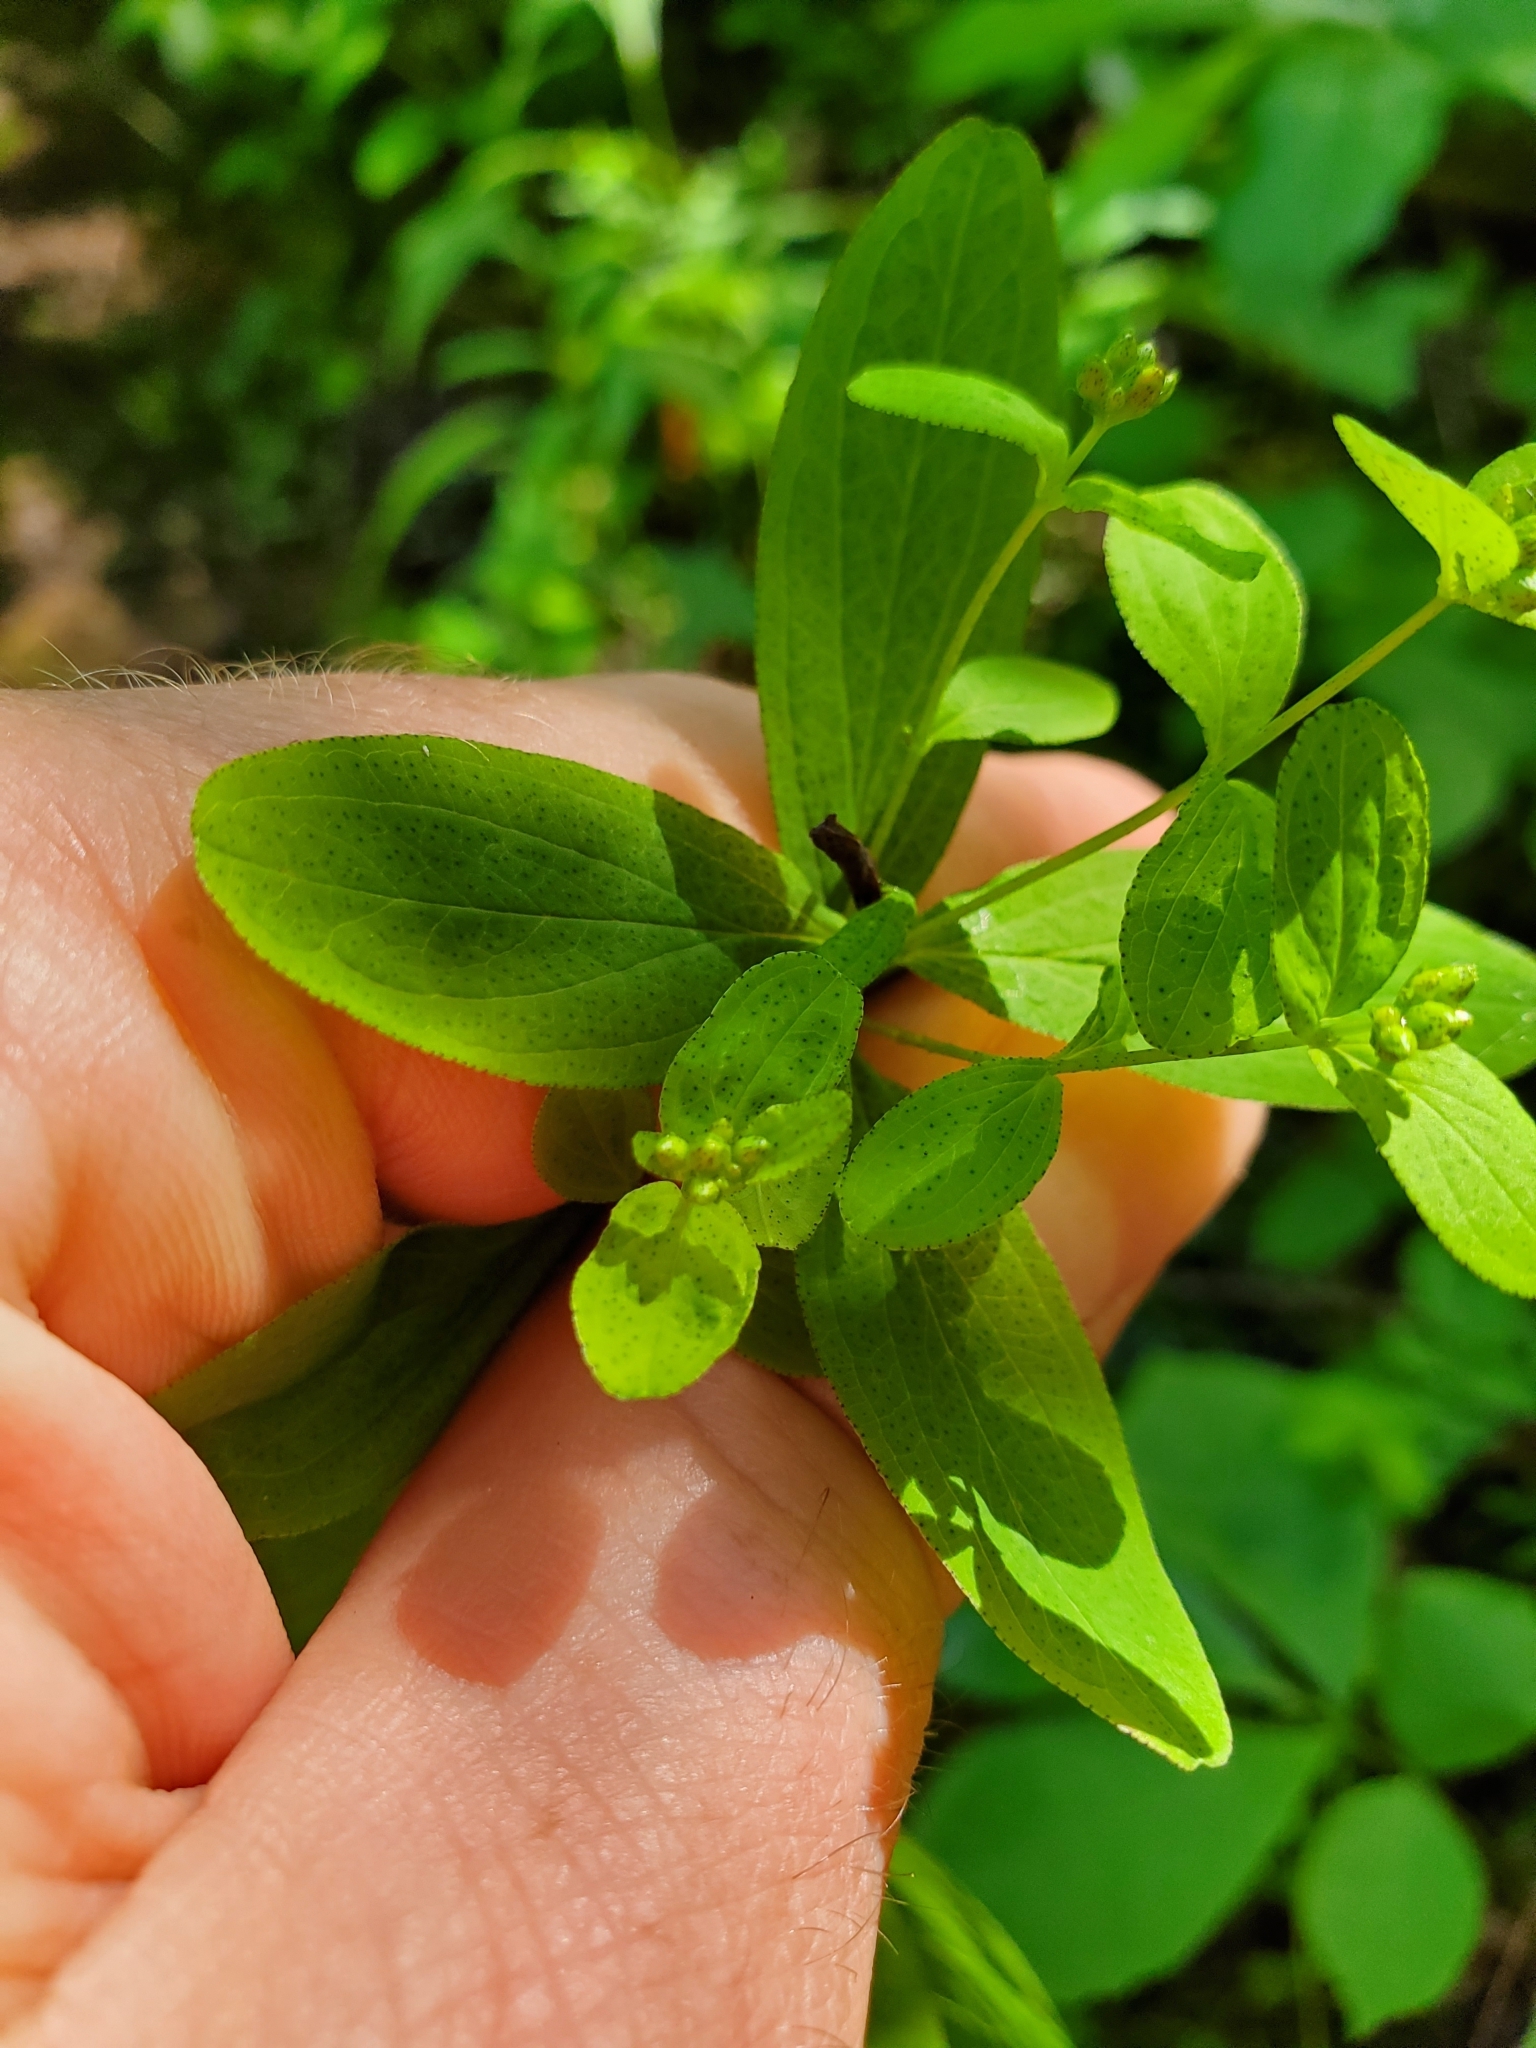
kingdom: Plantae
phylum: Tracheophyta
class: Magnoliopsida
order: Malpighiales
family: Hypericaceae
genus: Hypericum
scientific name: Hypericum punctatum
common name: Spotted st. john's-wort
